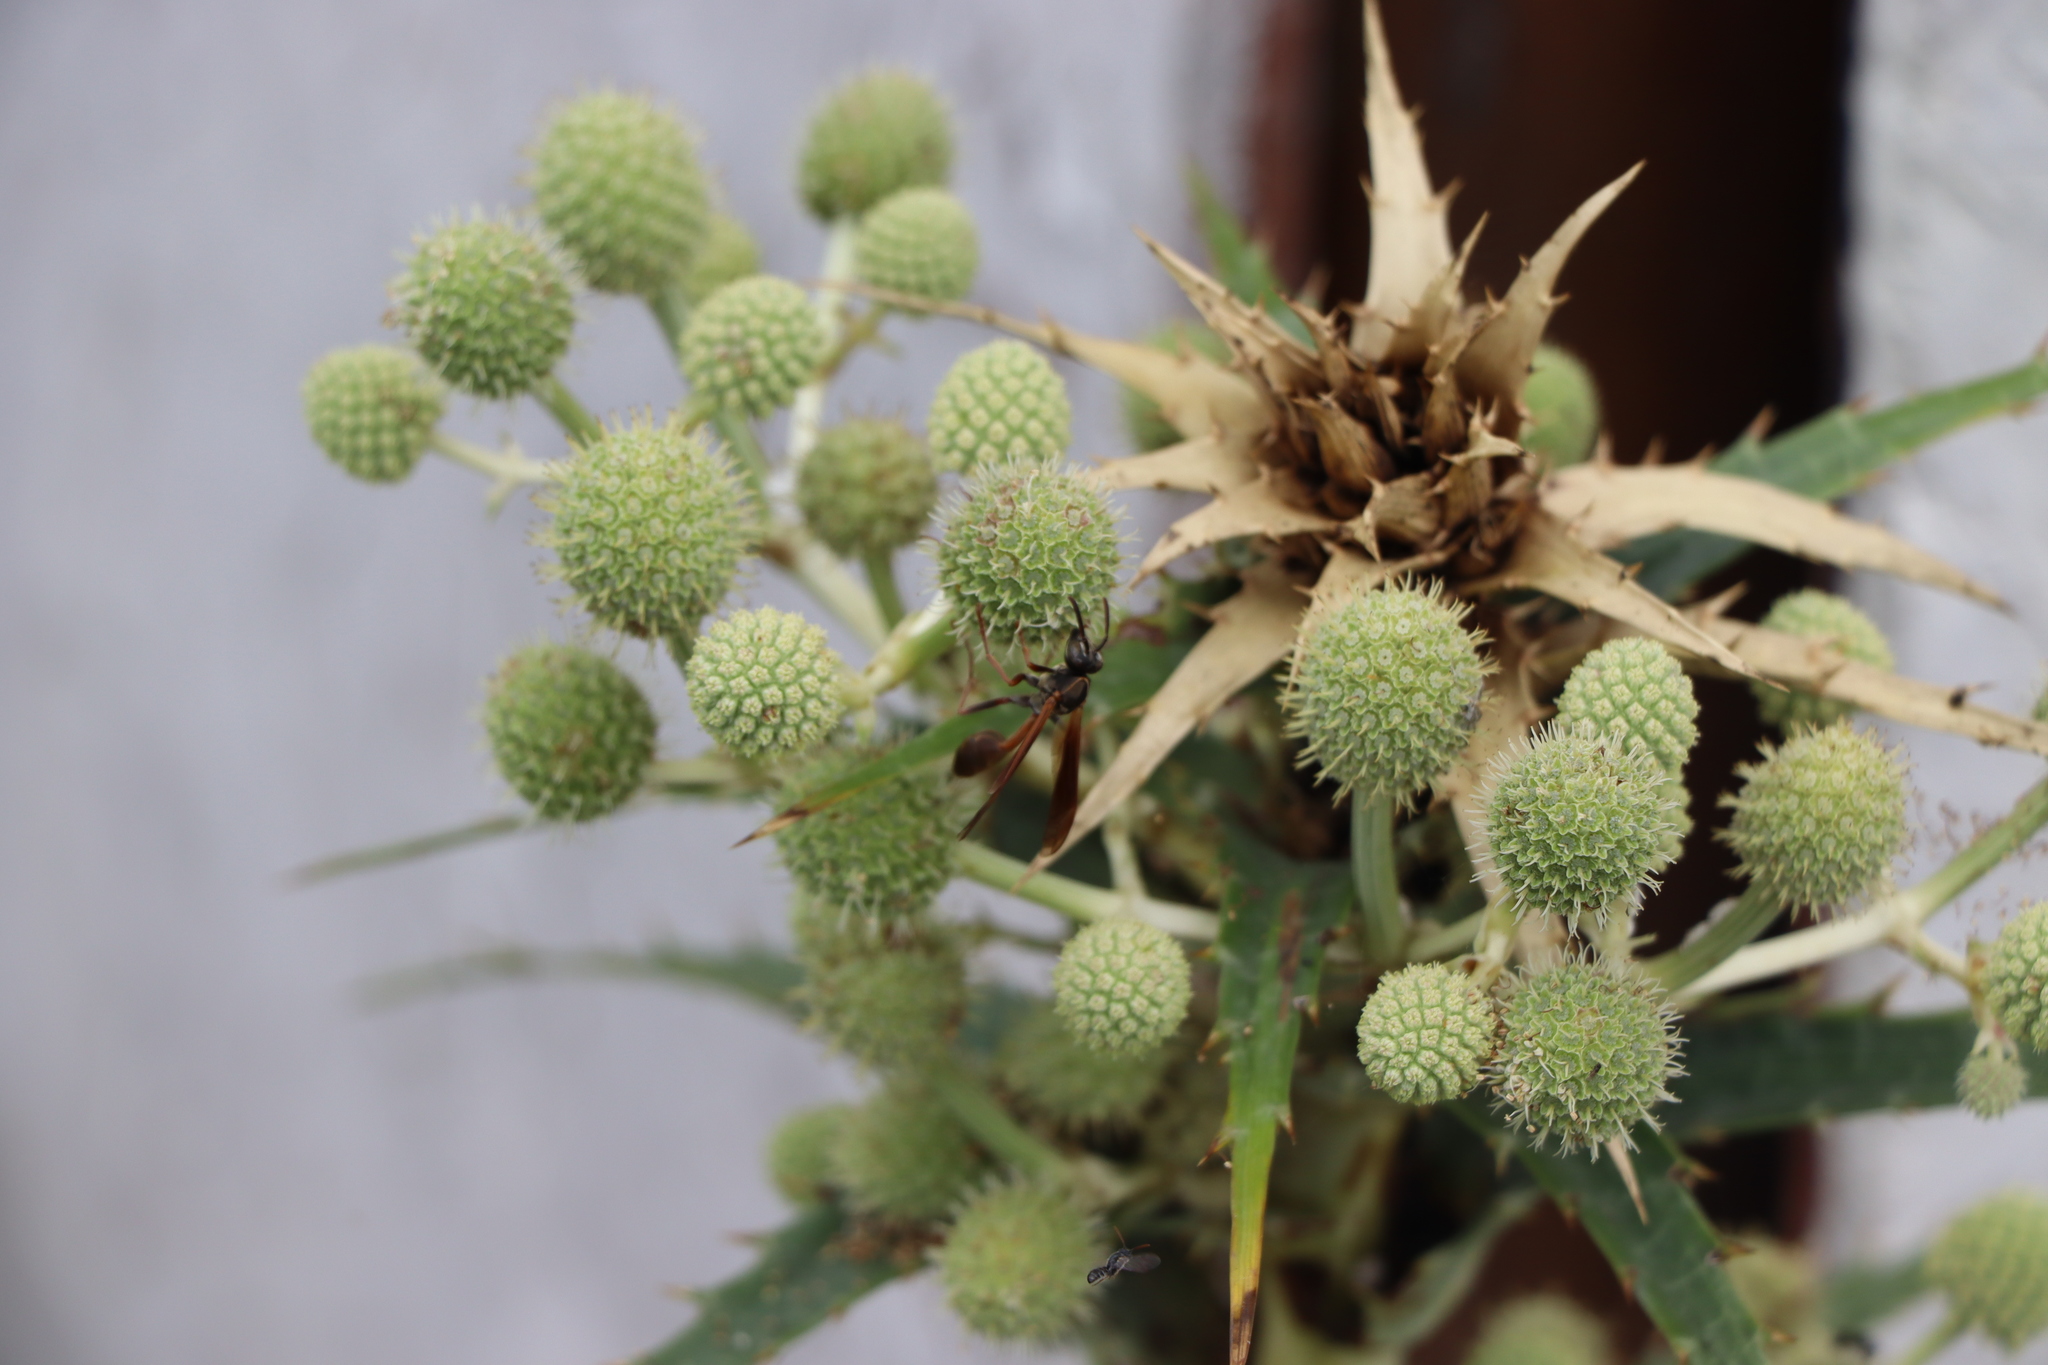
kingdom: Animalia
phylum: Arthropoda
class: Insecta
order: Hymenoptera
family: Vespidae
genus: Mischocyttarus
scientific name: Mischocyttarus drewseni
